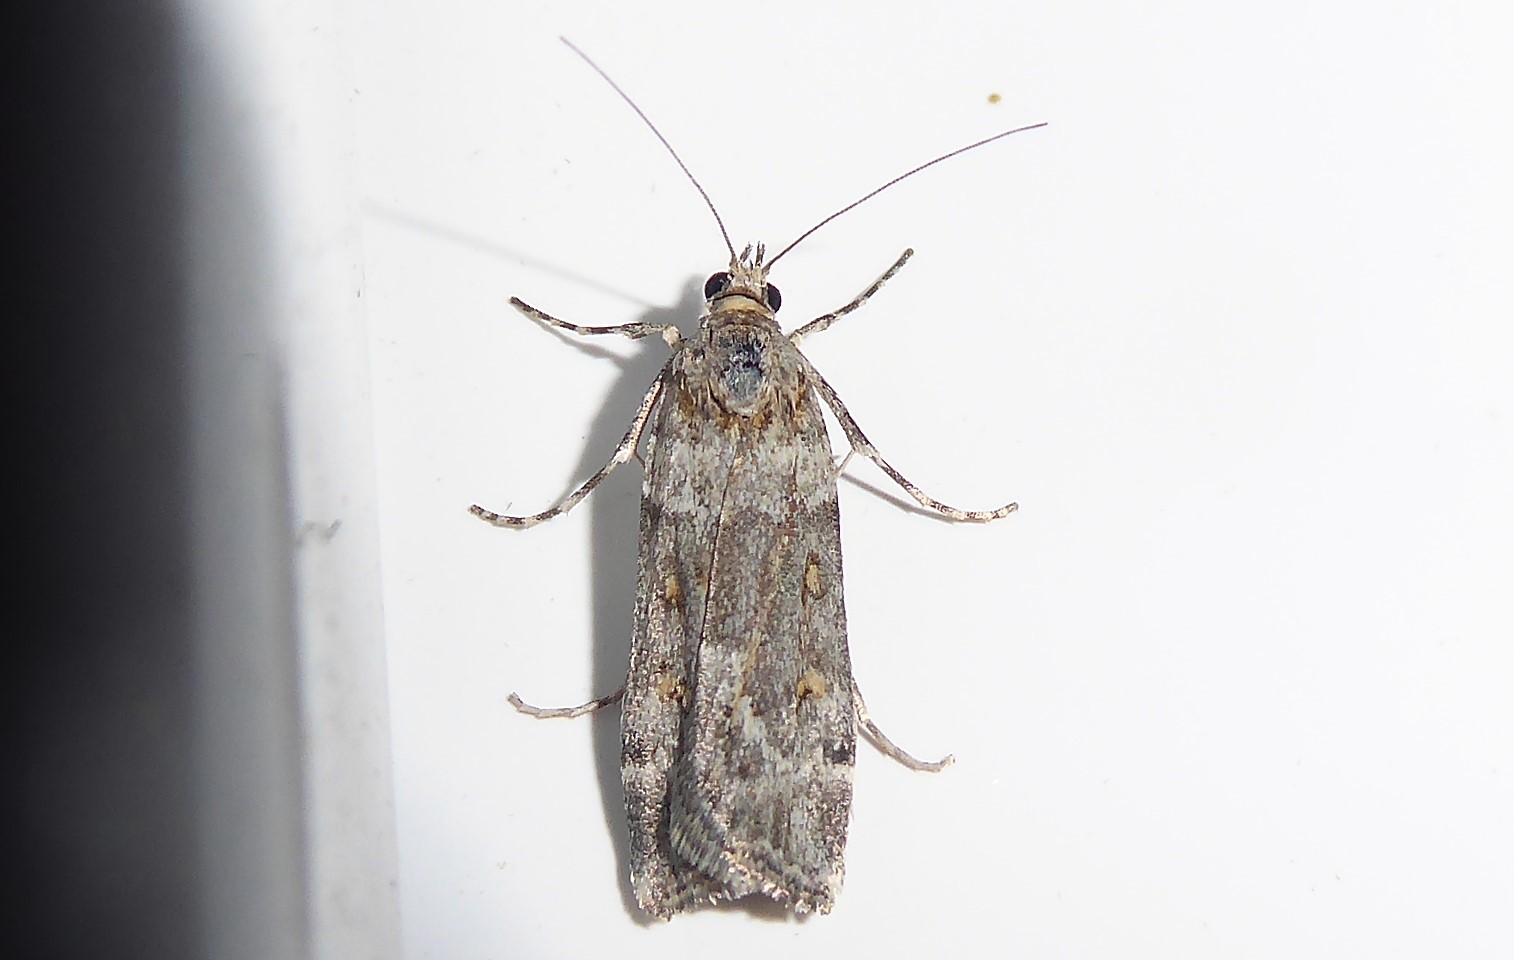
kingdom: Animalia
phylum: Arthropoda
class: Insecta
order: Lepidoptera
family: Crambidae
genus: Eudonia
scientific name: Eudonia diphtheralis
